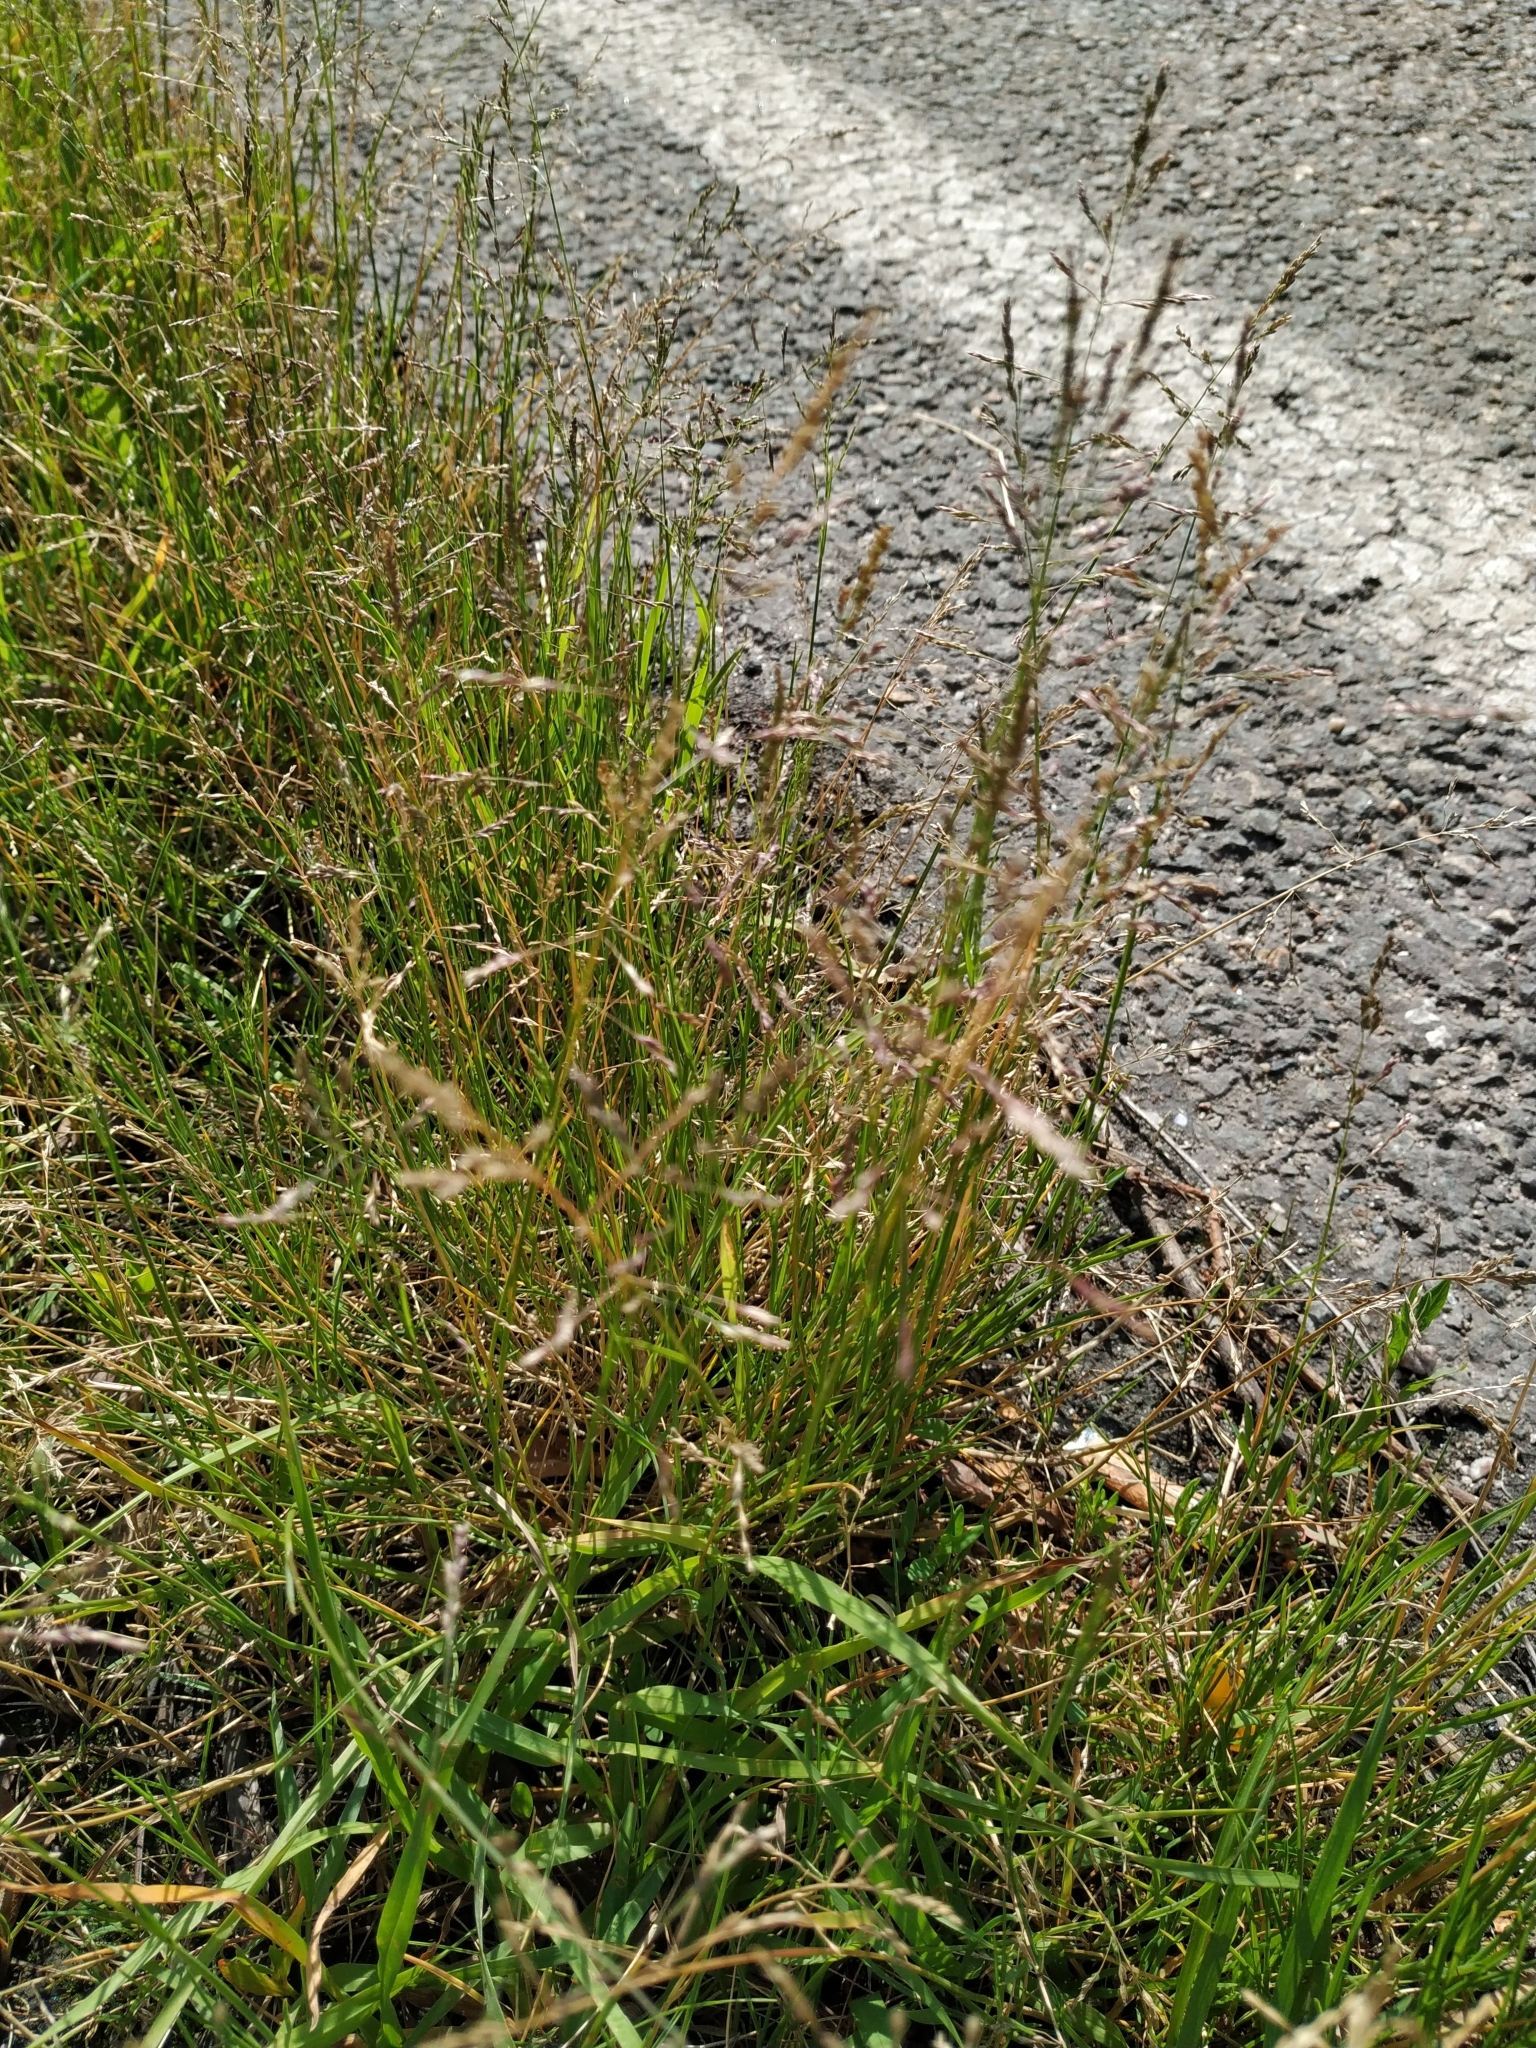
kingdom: Plantae
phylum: Tracheophyta
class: Liliopsida
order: Poales
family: Poaceae
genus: Puccinellia
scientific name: Puccinellia distans
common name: Weeping alkaligrass
